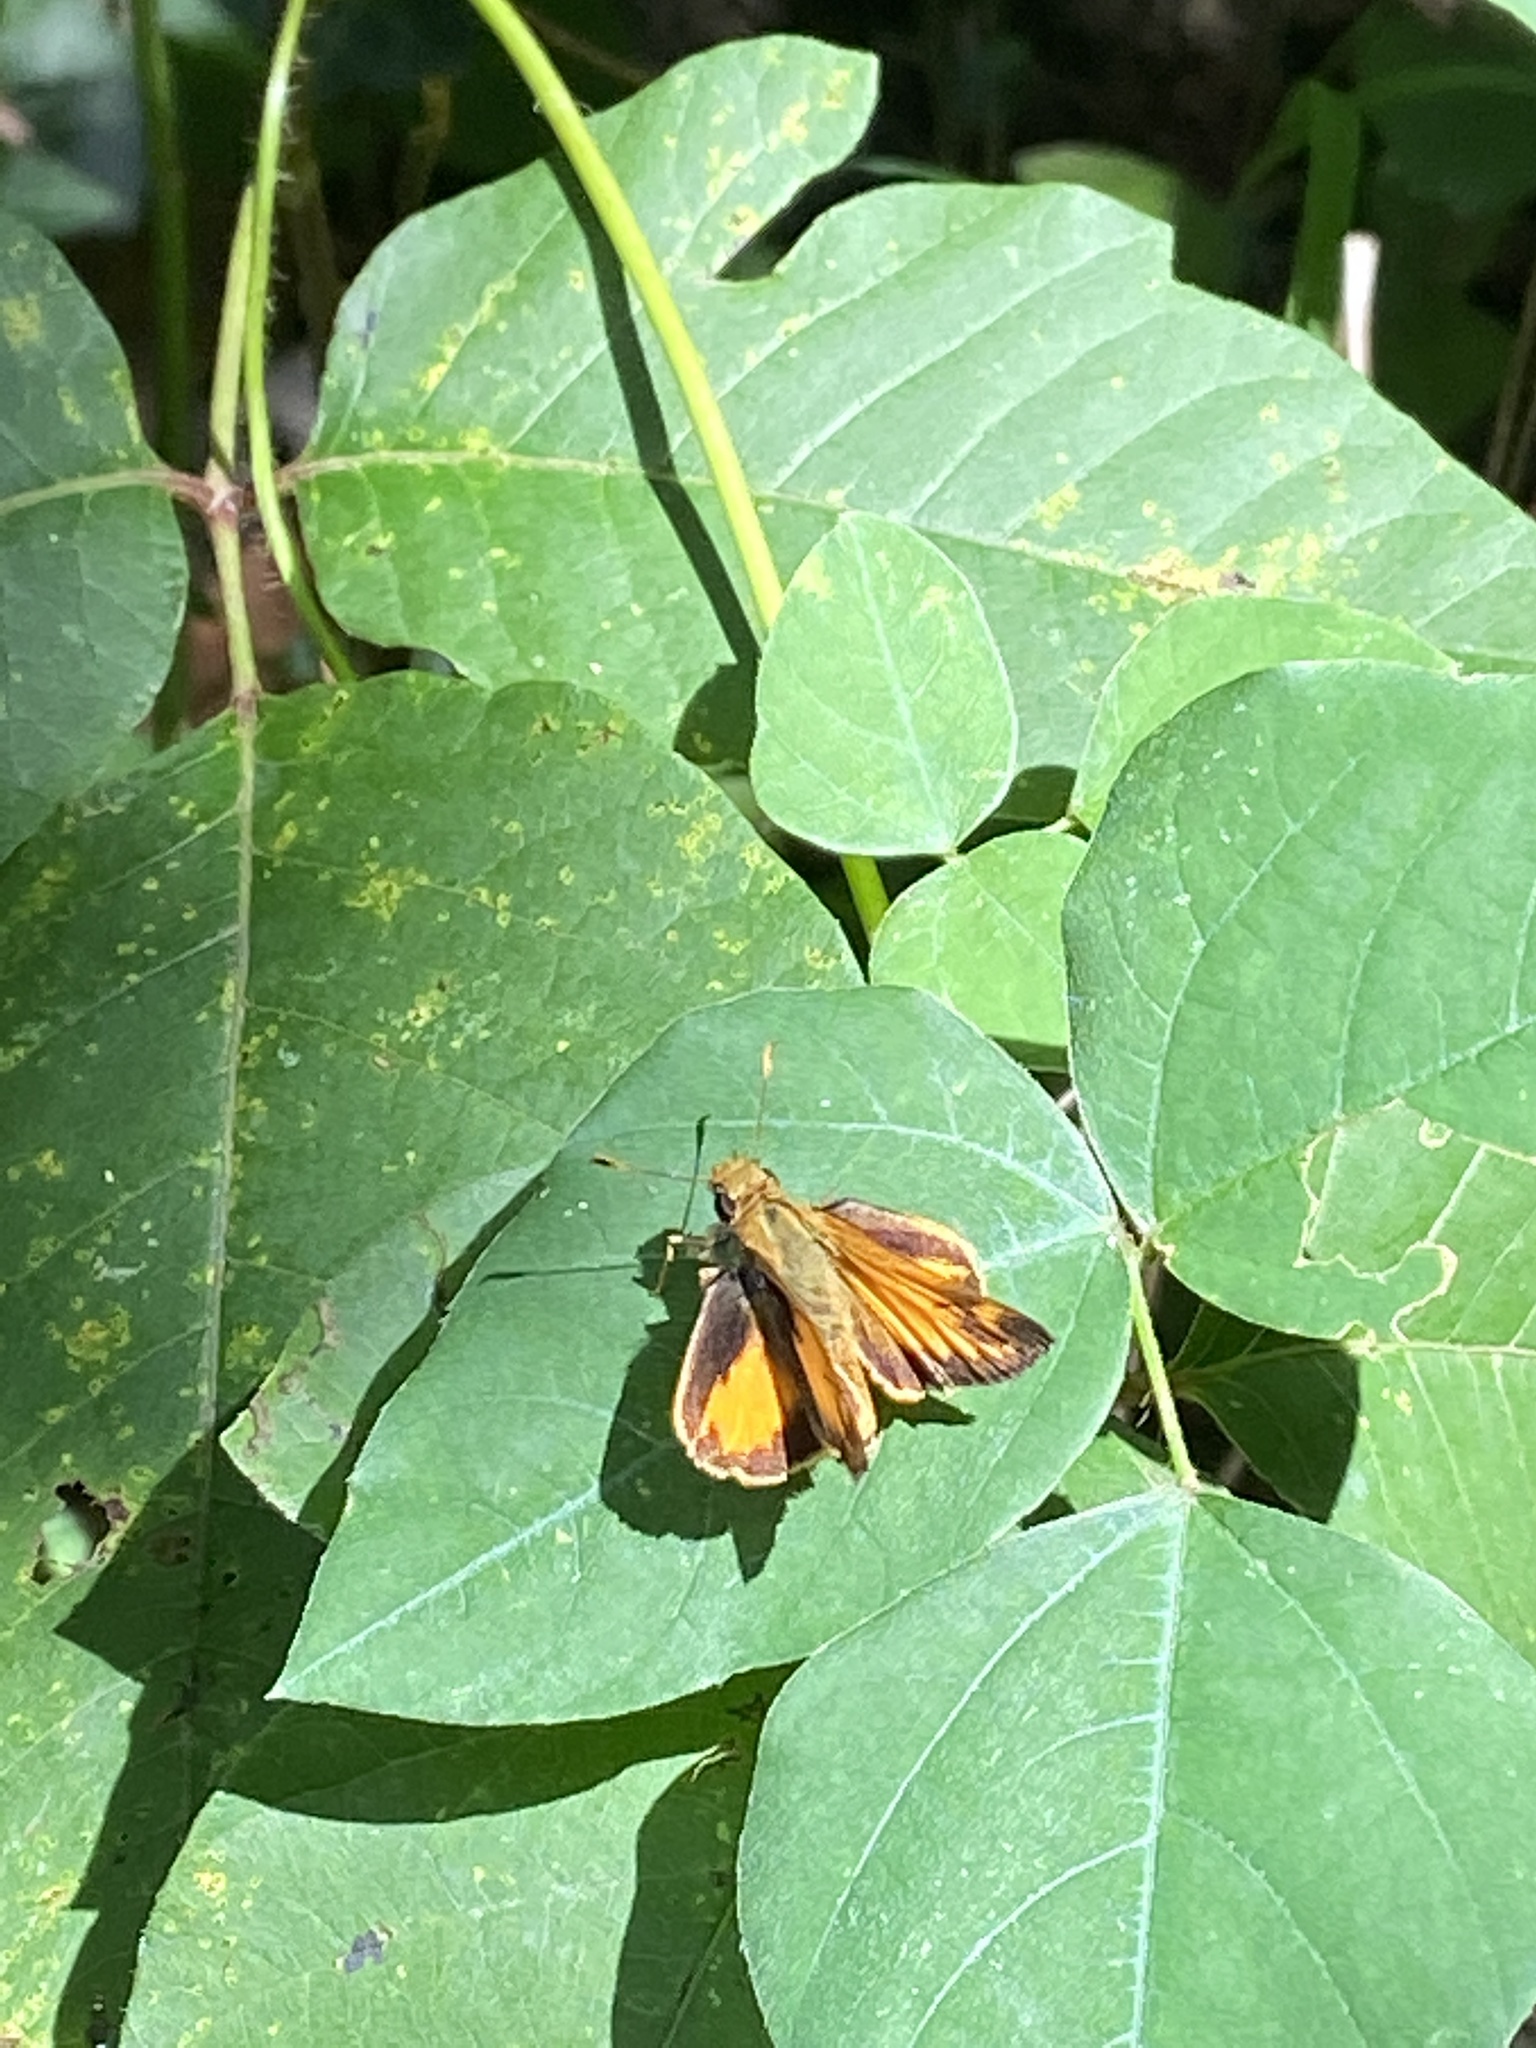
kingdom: Animalia
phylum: Arthropoda
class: Insecta
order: Lepidoptera
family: Hesperiidae
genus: Lon
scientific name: Lon zabulon
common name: Zabulon skipper
